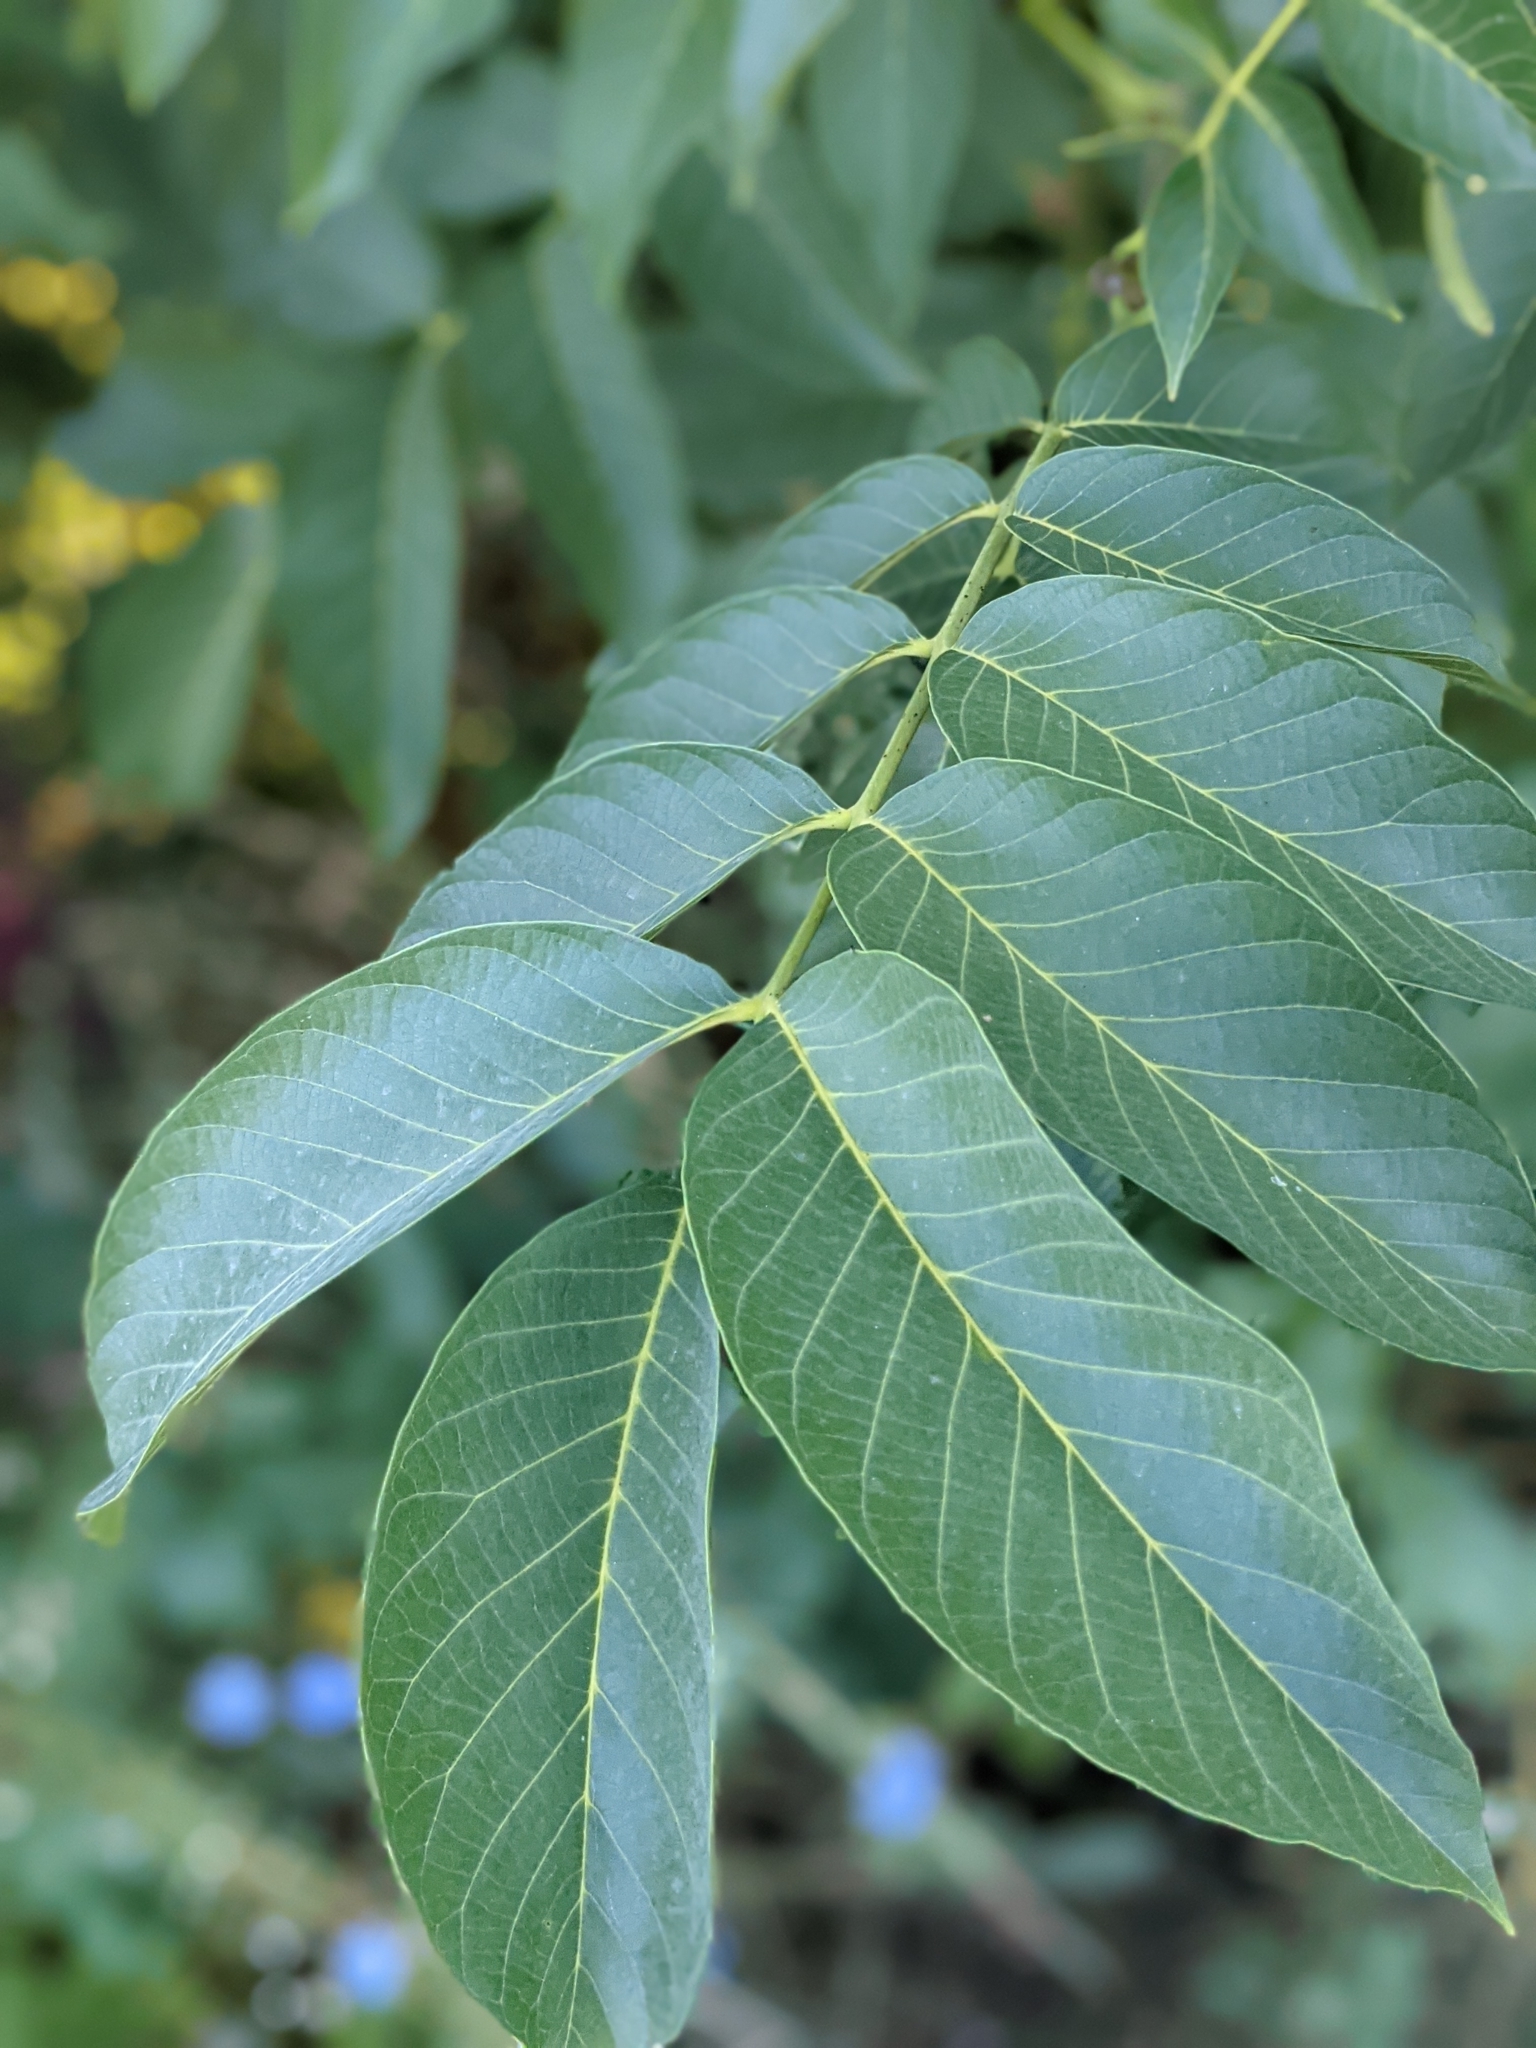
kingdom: Plantae
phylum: Tracheophyta
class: Magnoliopsida
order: Fagales
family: Juglandaceae
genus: Juglans
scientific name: Juglans regia
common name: Walnut
